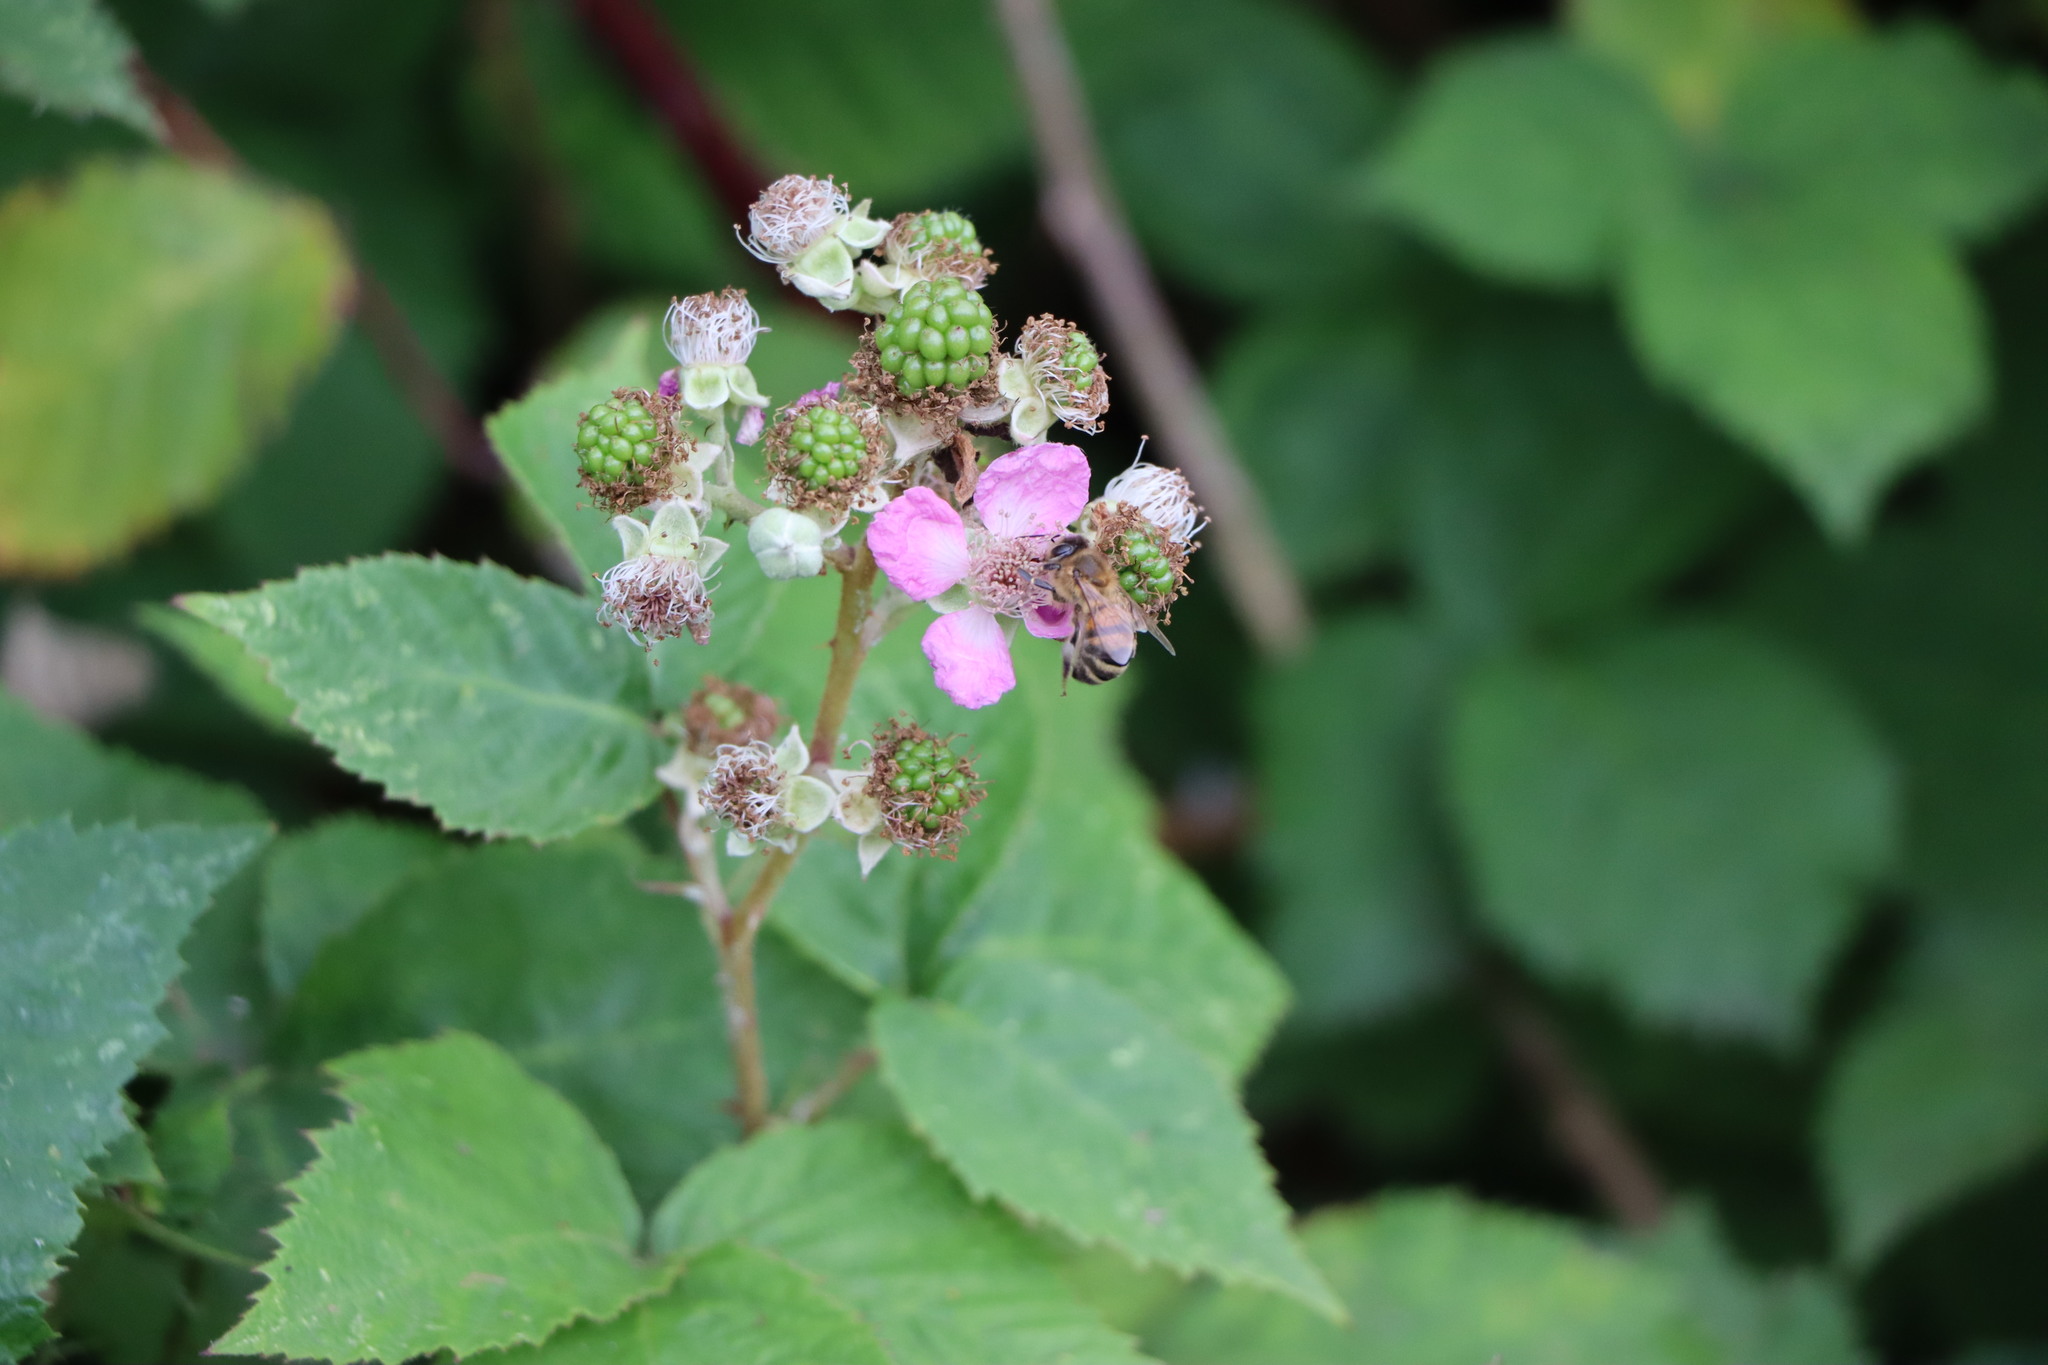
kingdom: Animalia
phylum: Arthropoda
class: Insecta
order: Hymenoptera
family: Apidae
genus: Apis
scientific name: Apis mellifera
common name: Honey bee
